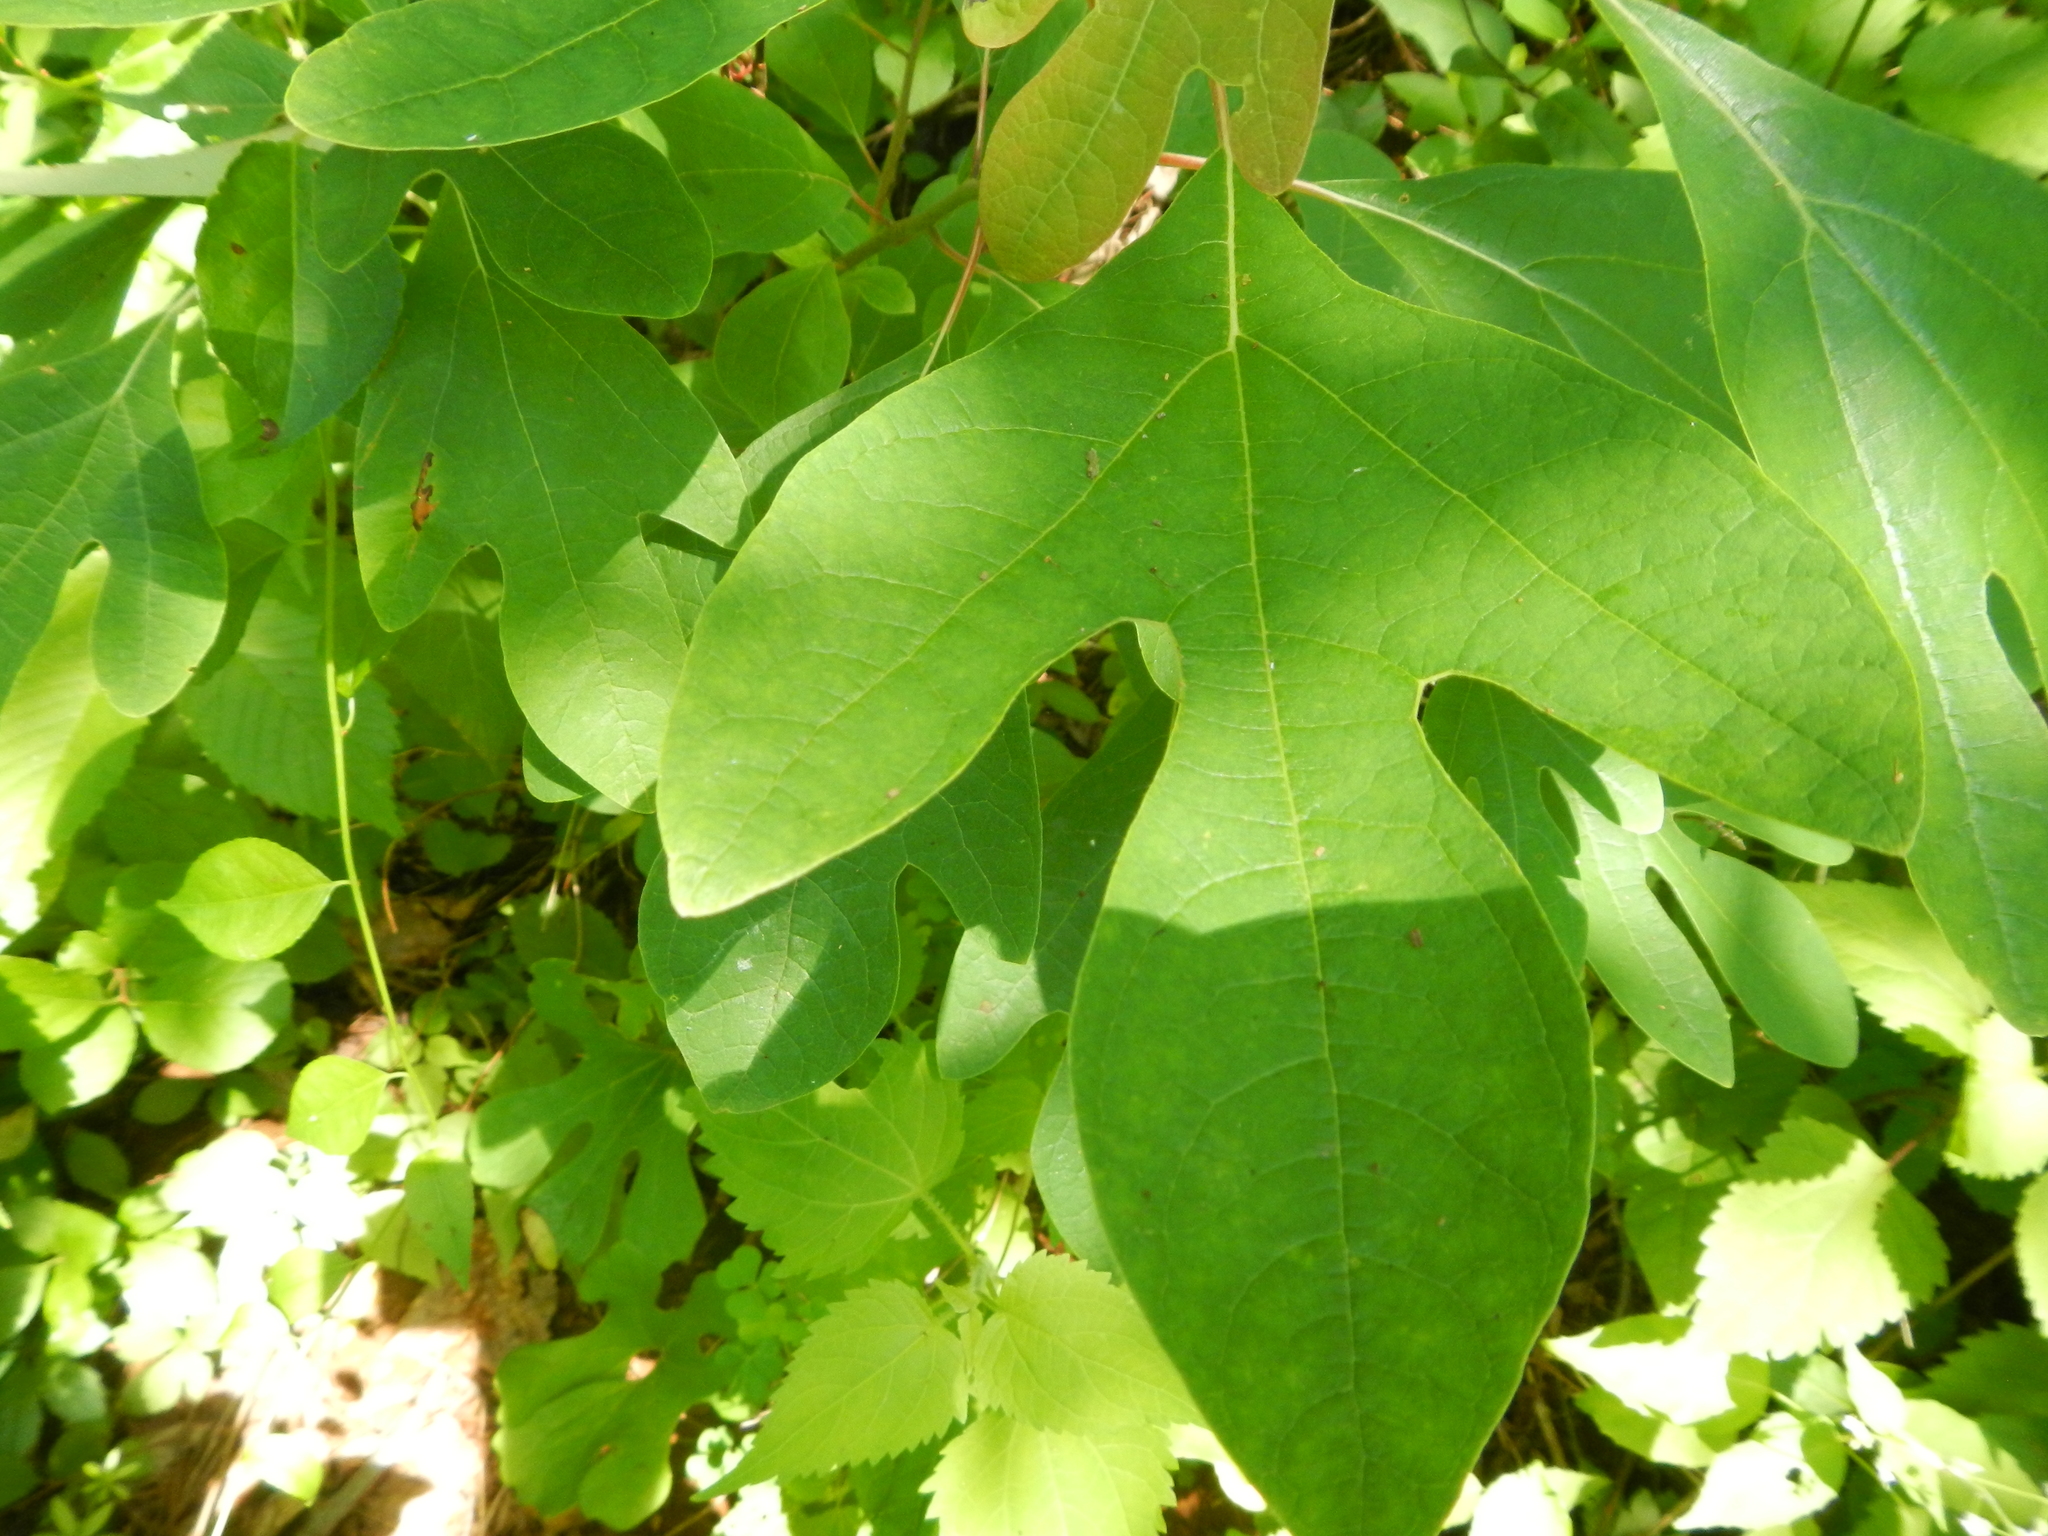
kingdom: Plantae
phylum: Tracheophyta
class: Magnoliopsida
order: Laurales
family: Lauraceae
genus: Sassafras
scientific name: Sassafras albidum
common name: Sassafras
